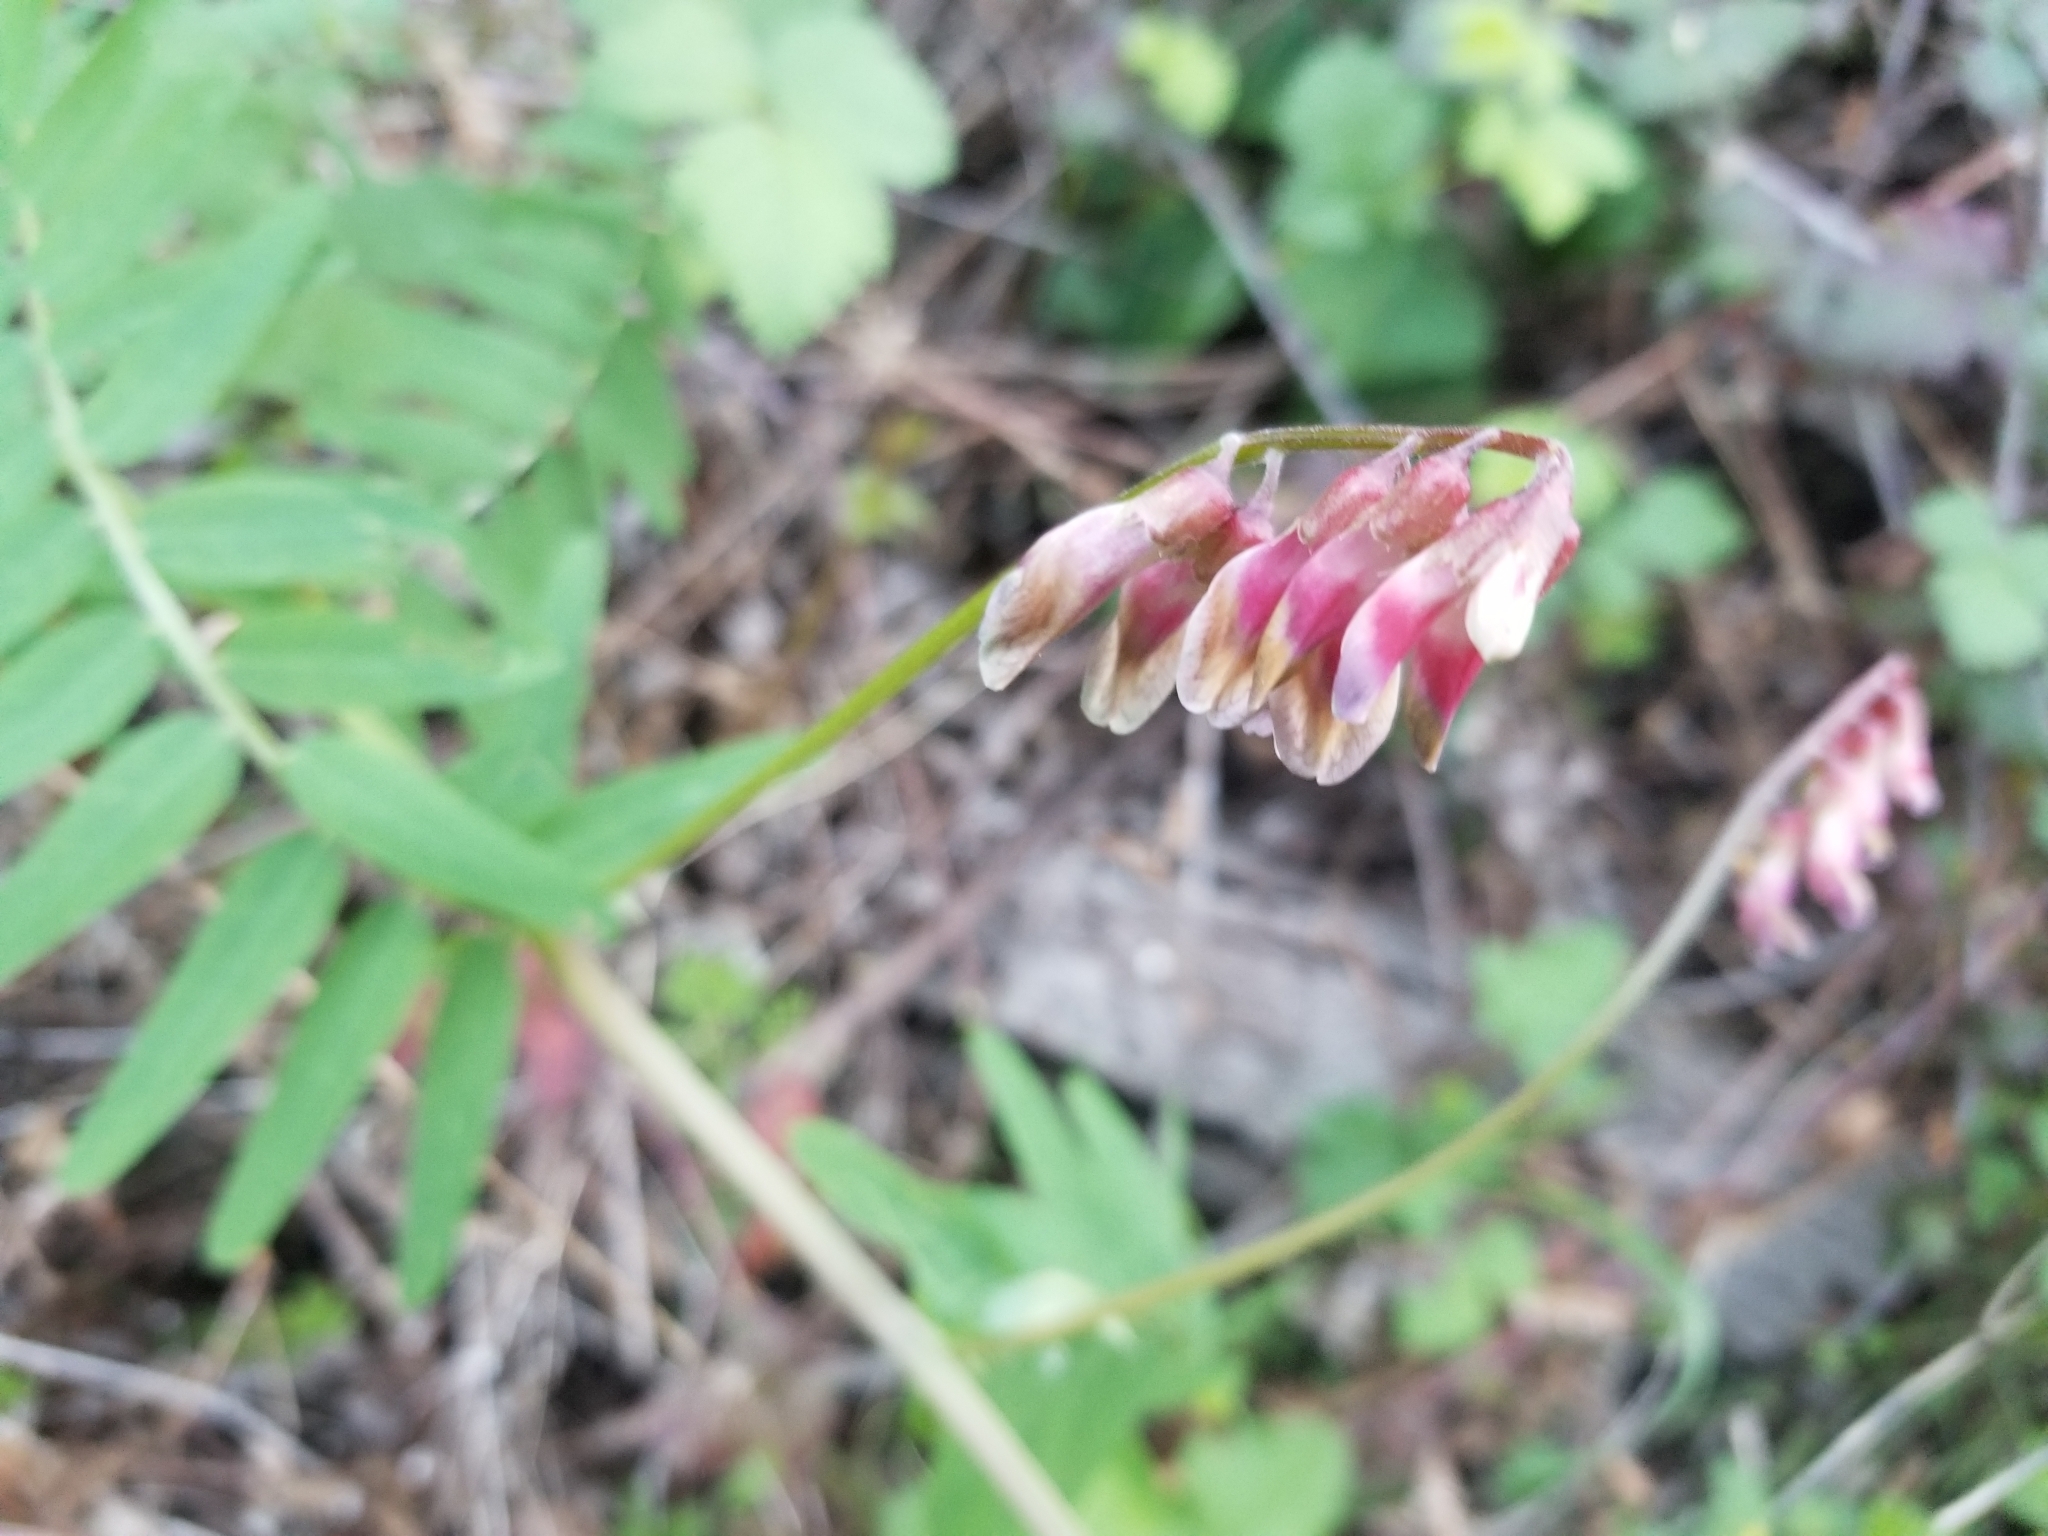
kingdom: Plantae
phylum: Tracheophyta
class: Magnoliopsida
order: Fabales
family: Fabaceae
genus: Vicia
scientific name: Vicia
